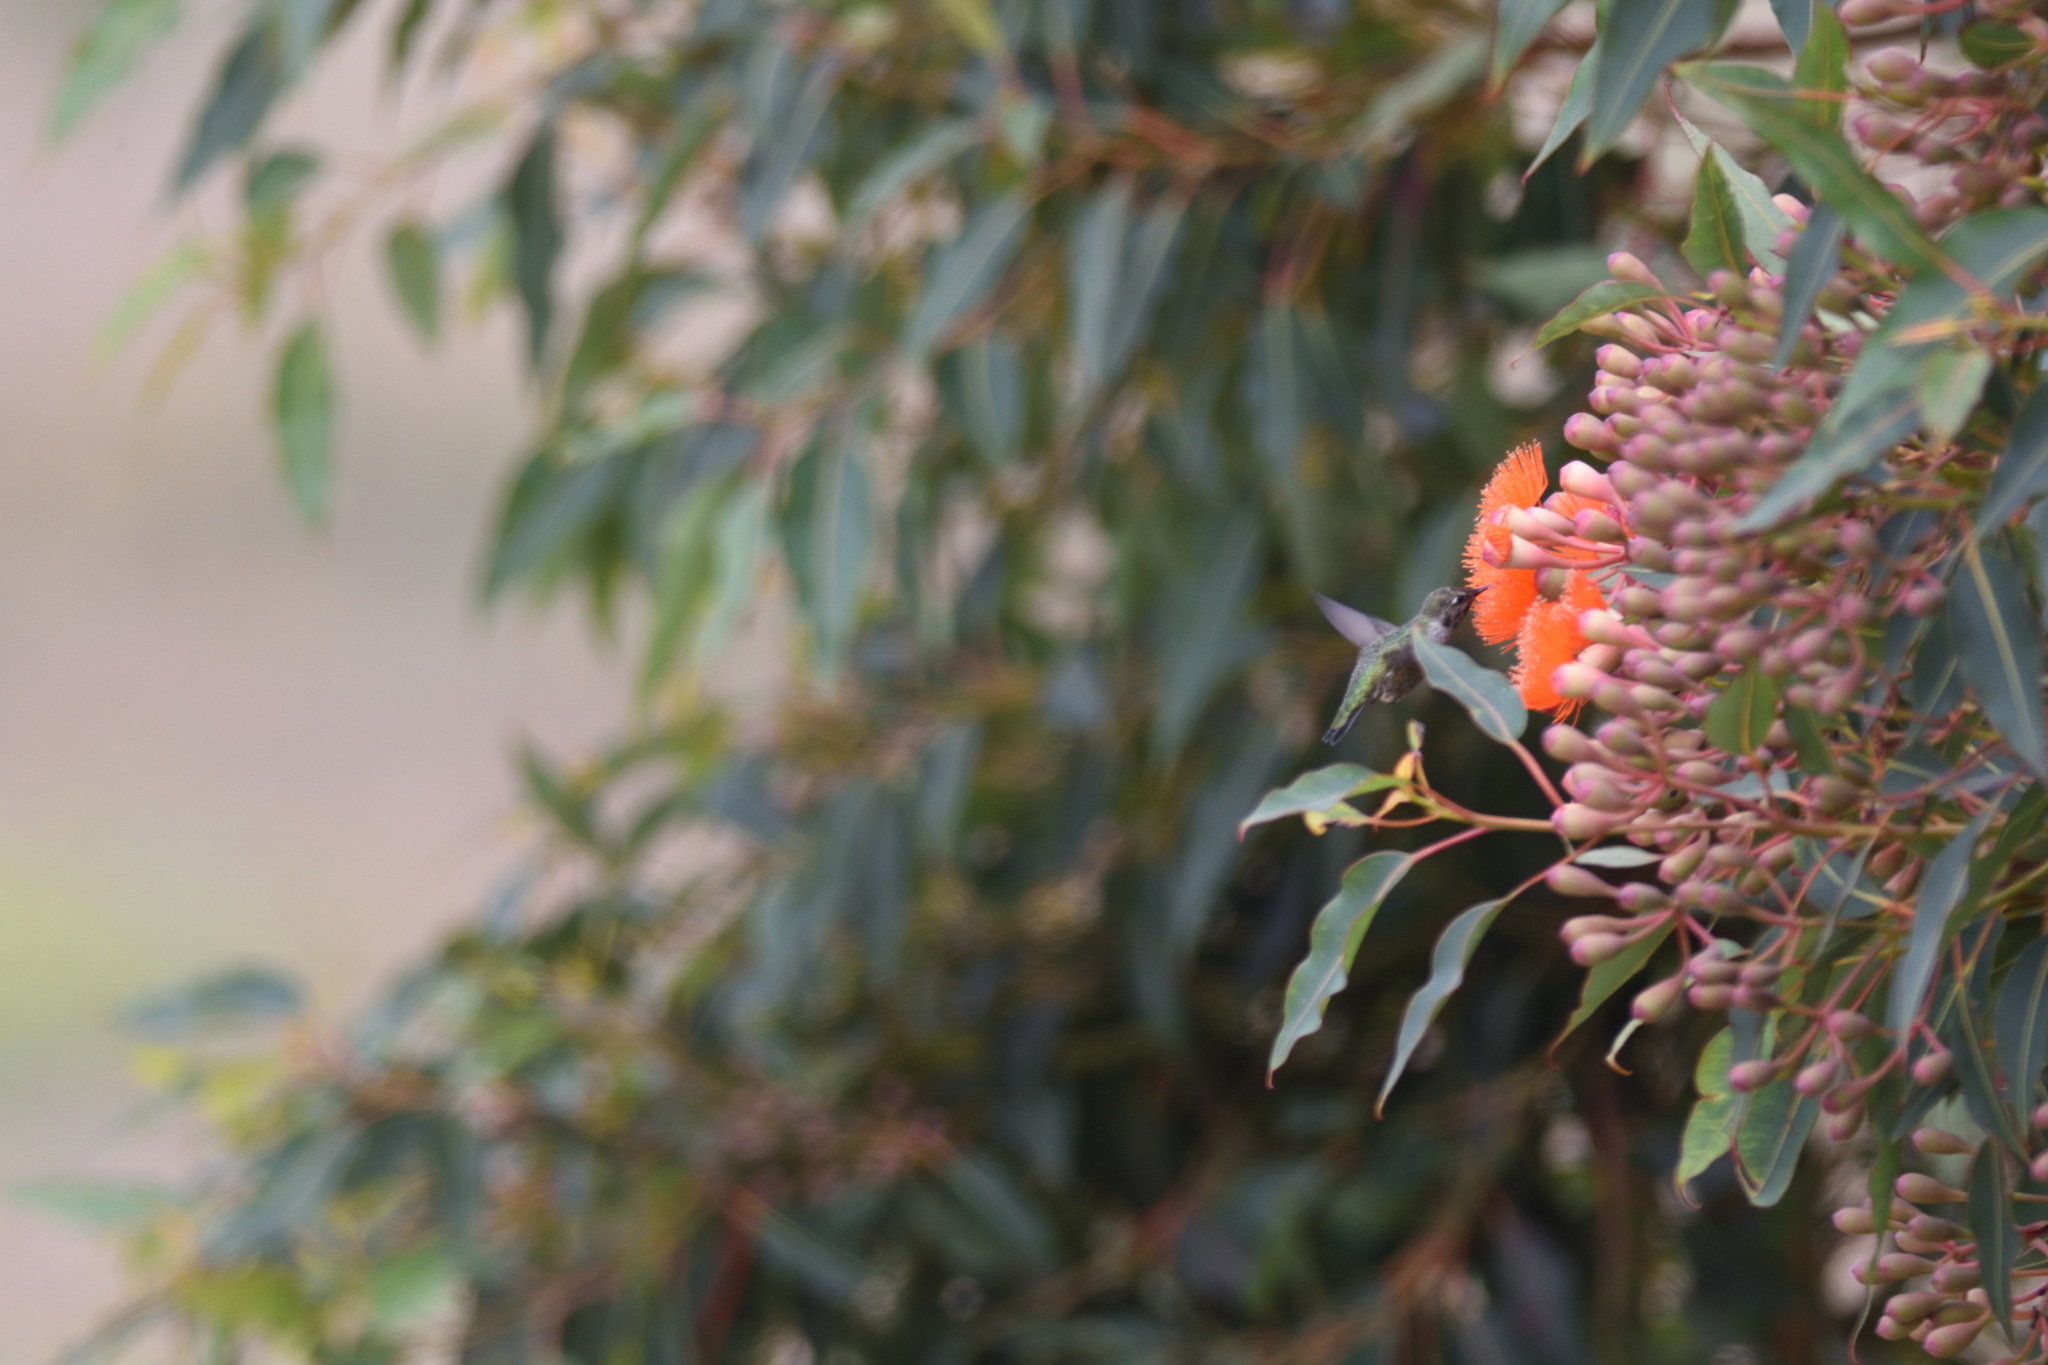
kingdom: Animalia
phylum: Chordata
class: Aves
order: Apodiformes
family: Trochilidae
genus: Calypte
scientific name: Calypte anna
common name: Anna's hummingbird
